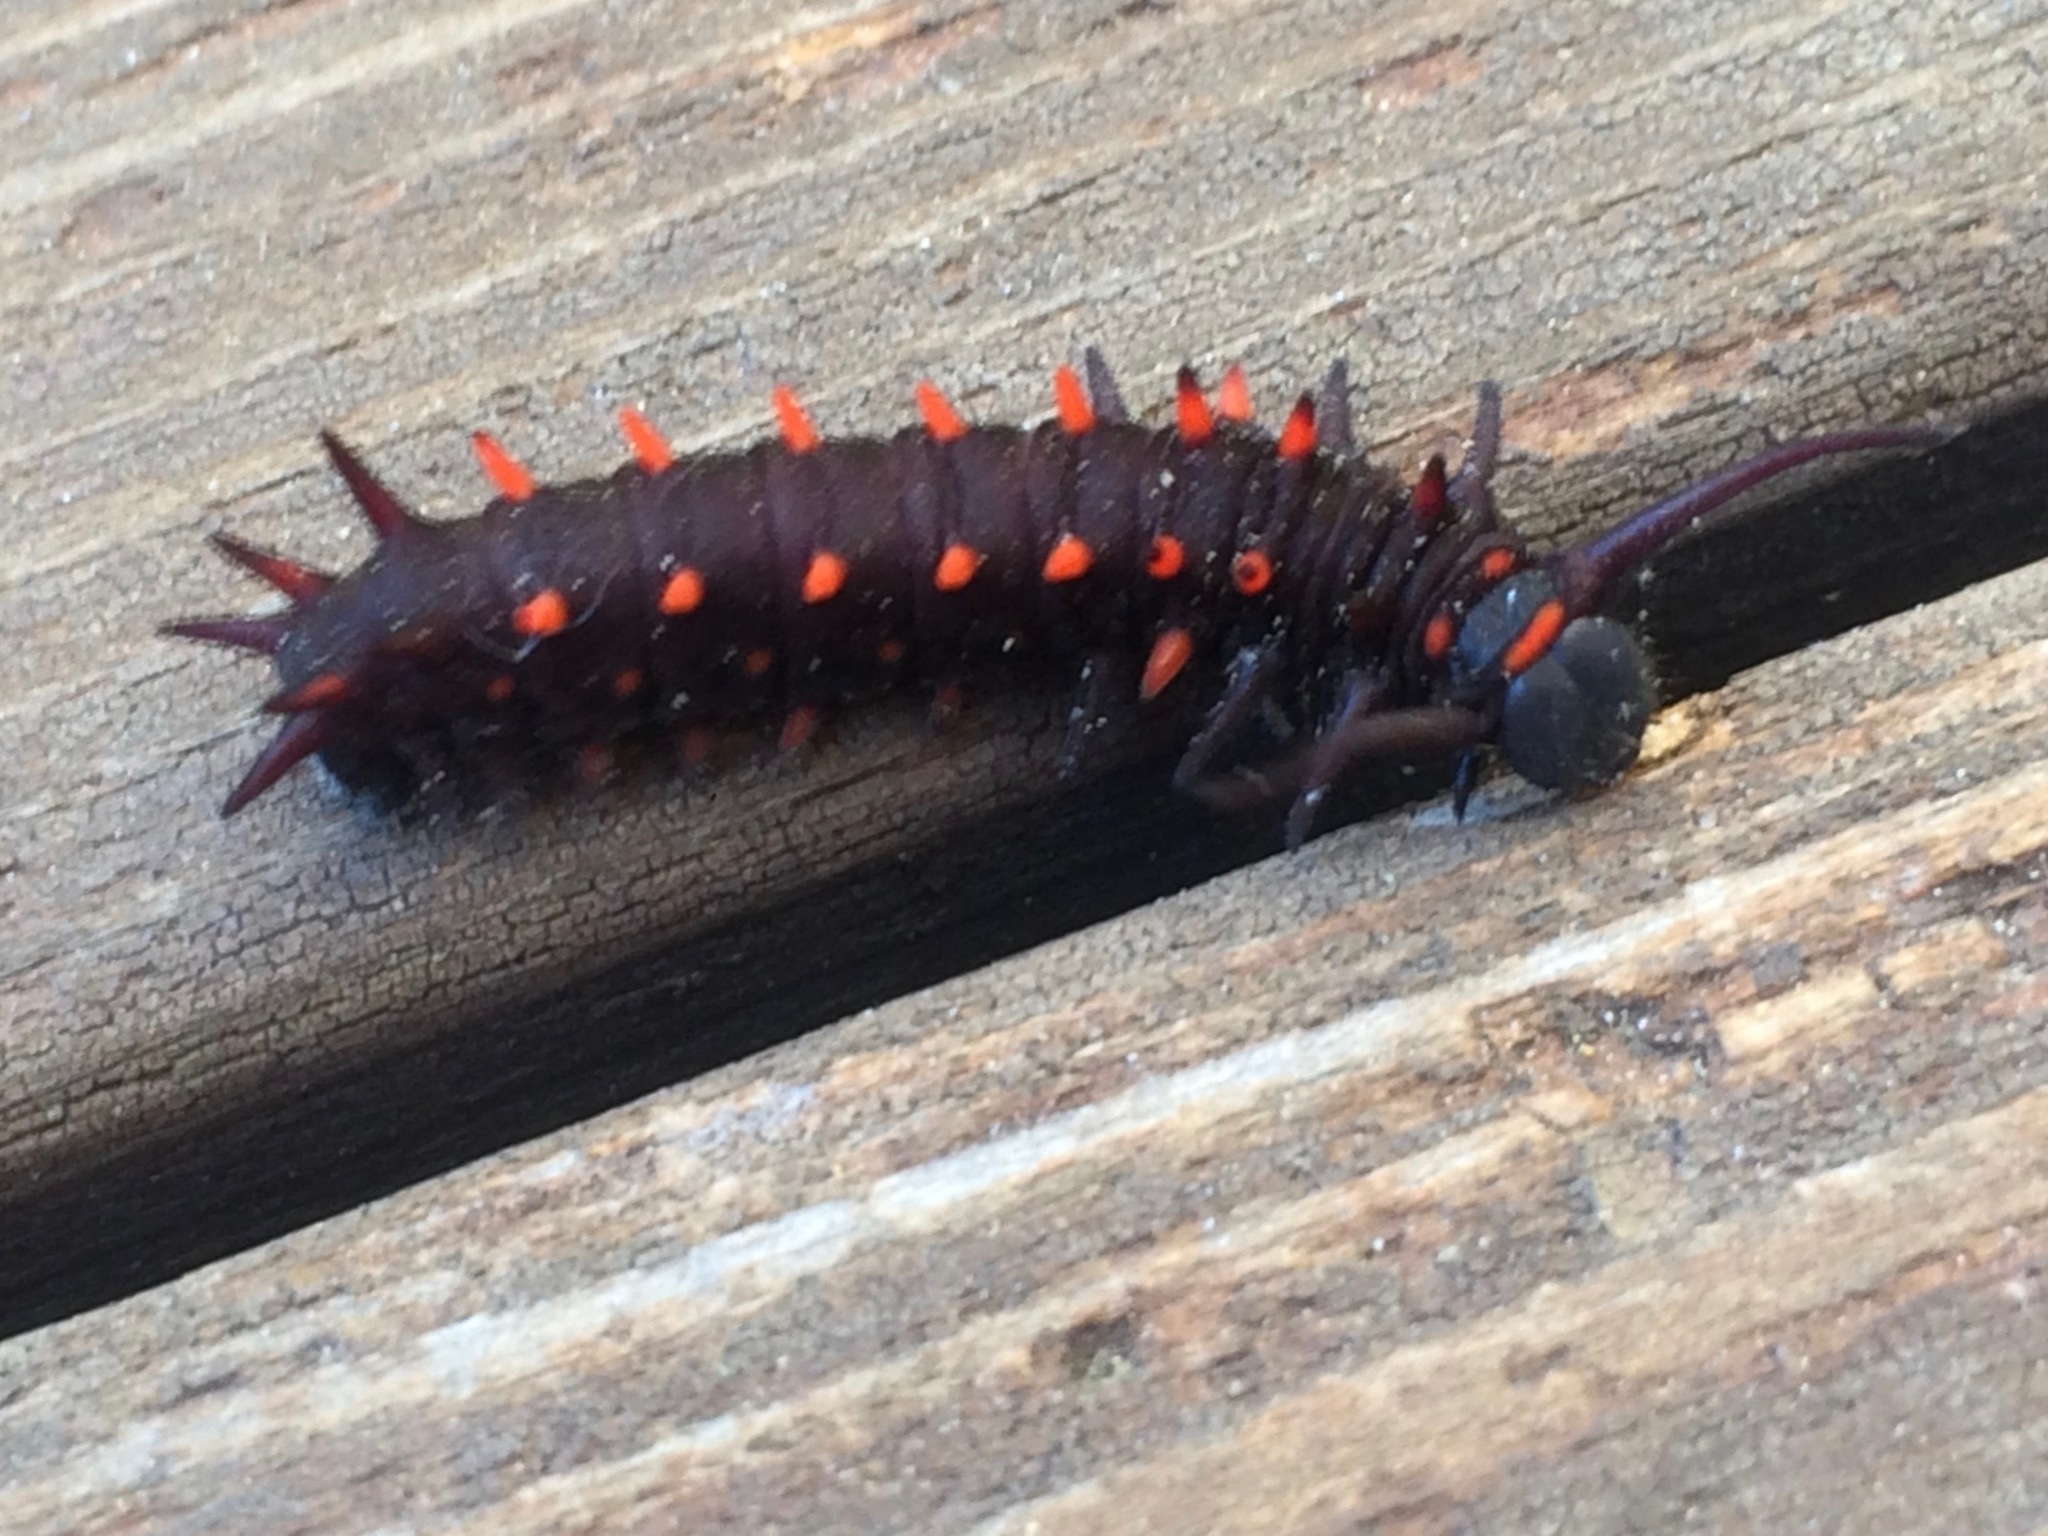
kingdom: Animalia
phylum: Arthropoda
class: Insecta
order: Lepidoptera
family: Papilionidae
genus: Battus
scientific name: Battus philenor
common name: Pipevine swallowtail
